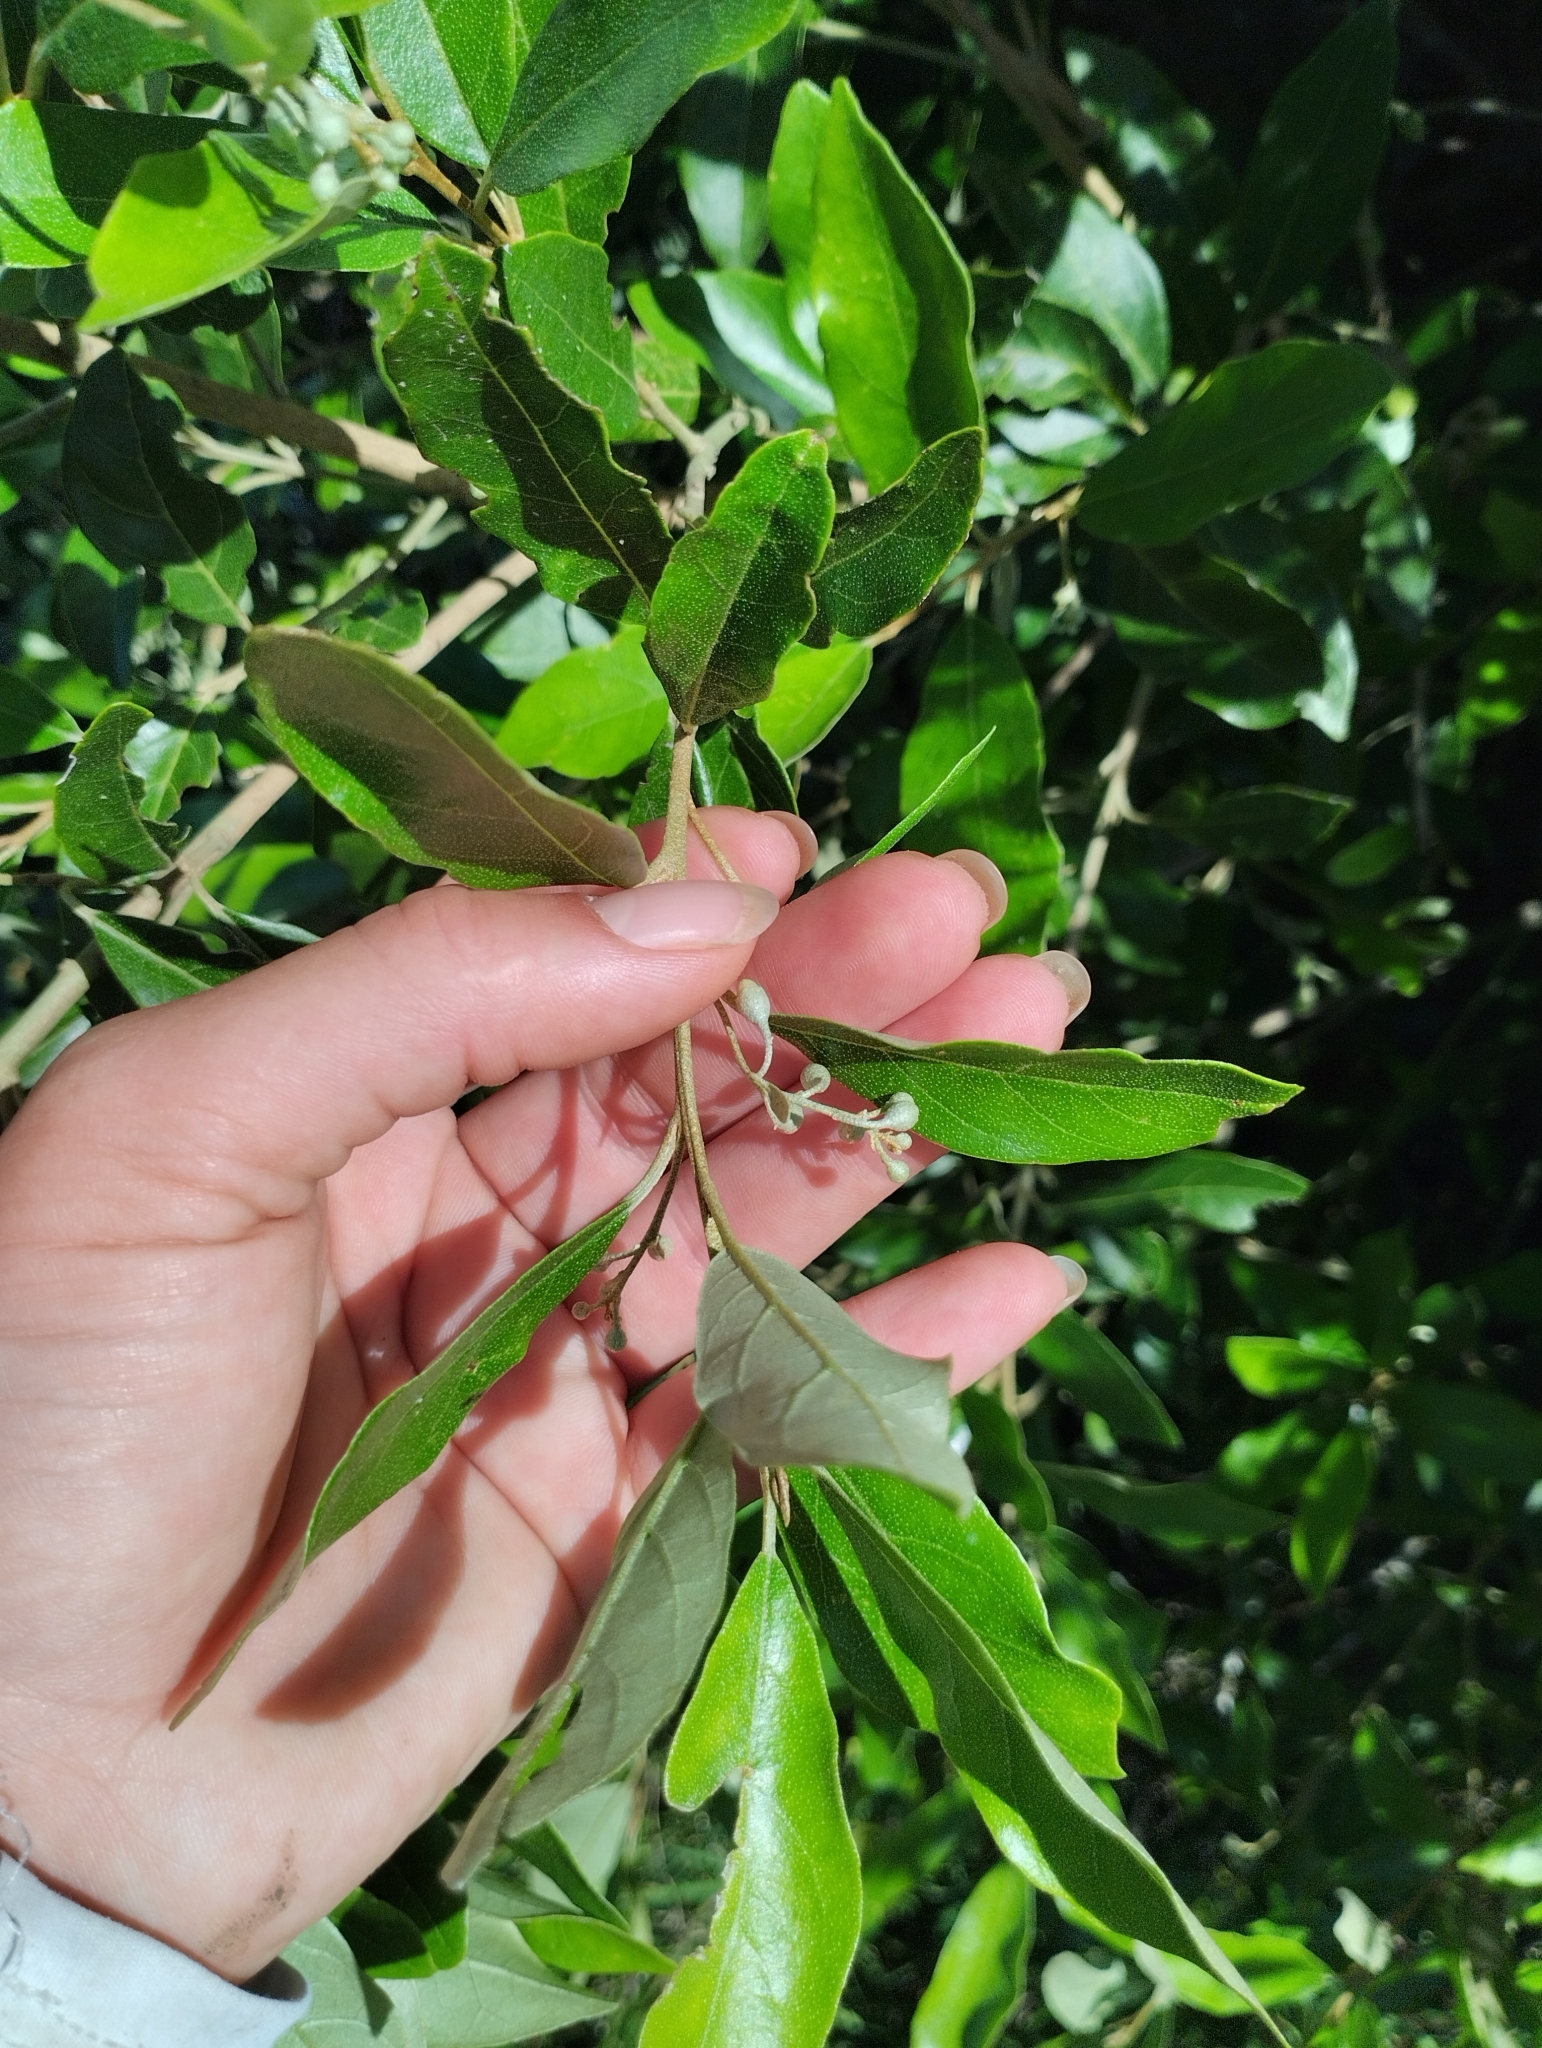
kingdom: Plantae
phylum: Tracheophyta
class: Magnoliopsida
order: Ericales
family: Styracaceae
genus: Styrax
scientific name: Styrax leprosus
